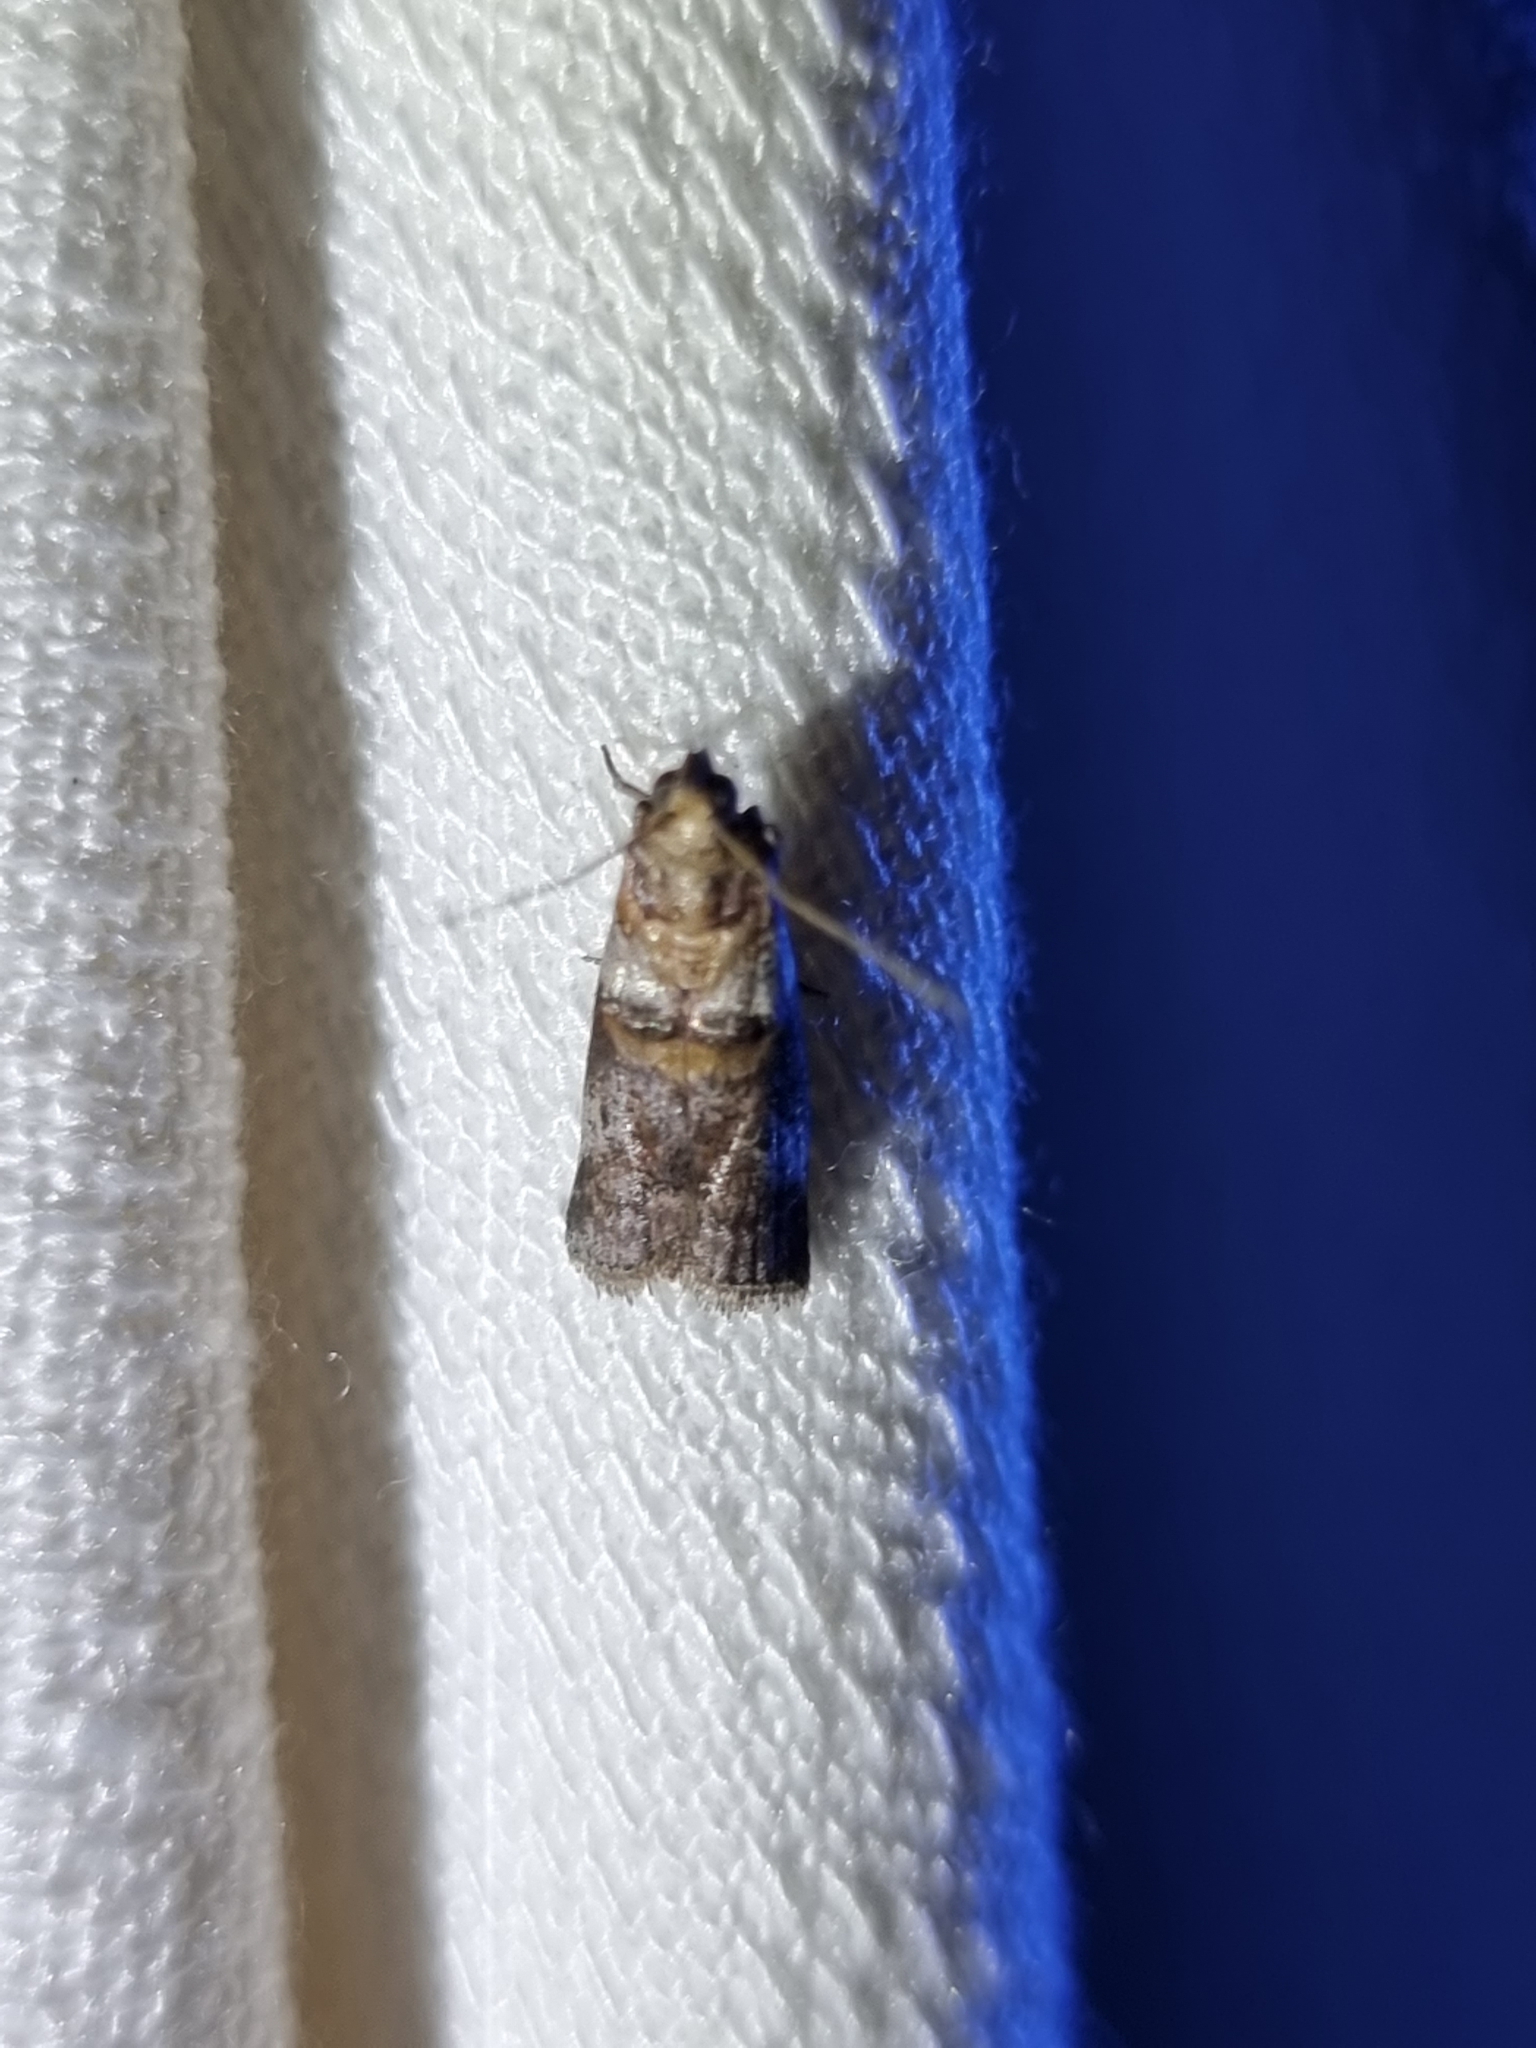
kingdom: Animalia
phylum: Arthropoda
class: Insecta
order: Lepidoptera
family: Pyralidae
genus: Conobathra
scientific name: Conobathra hemichlaena
